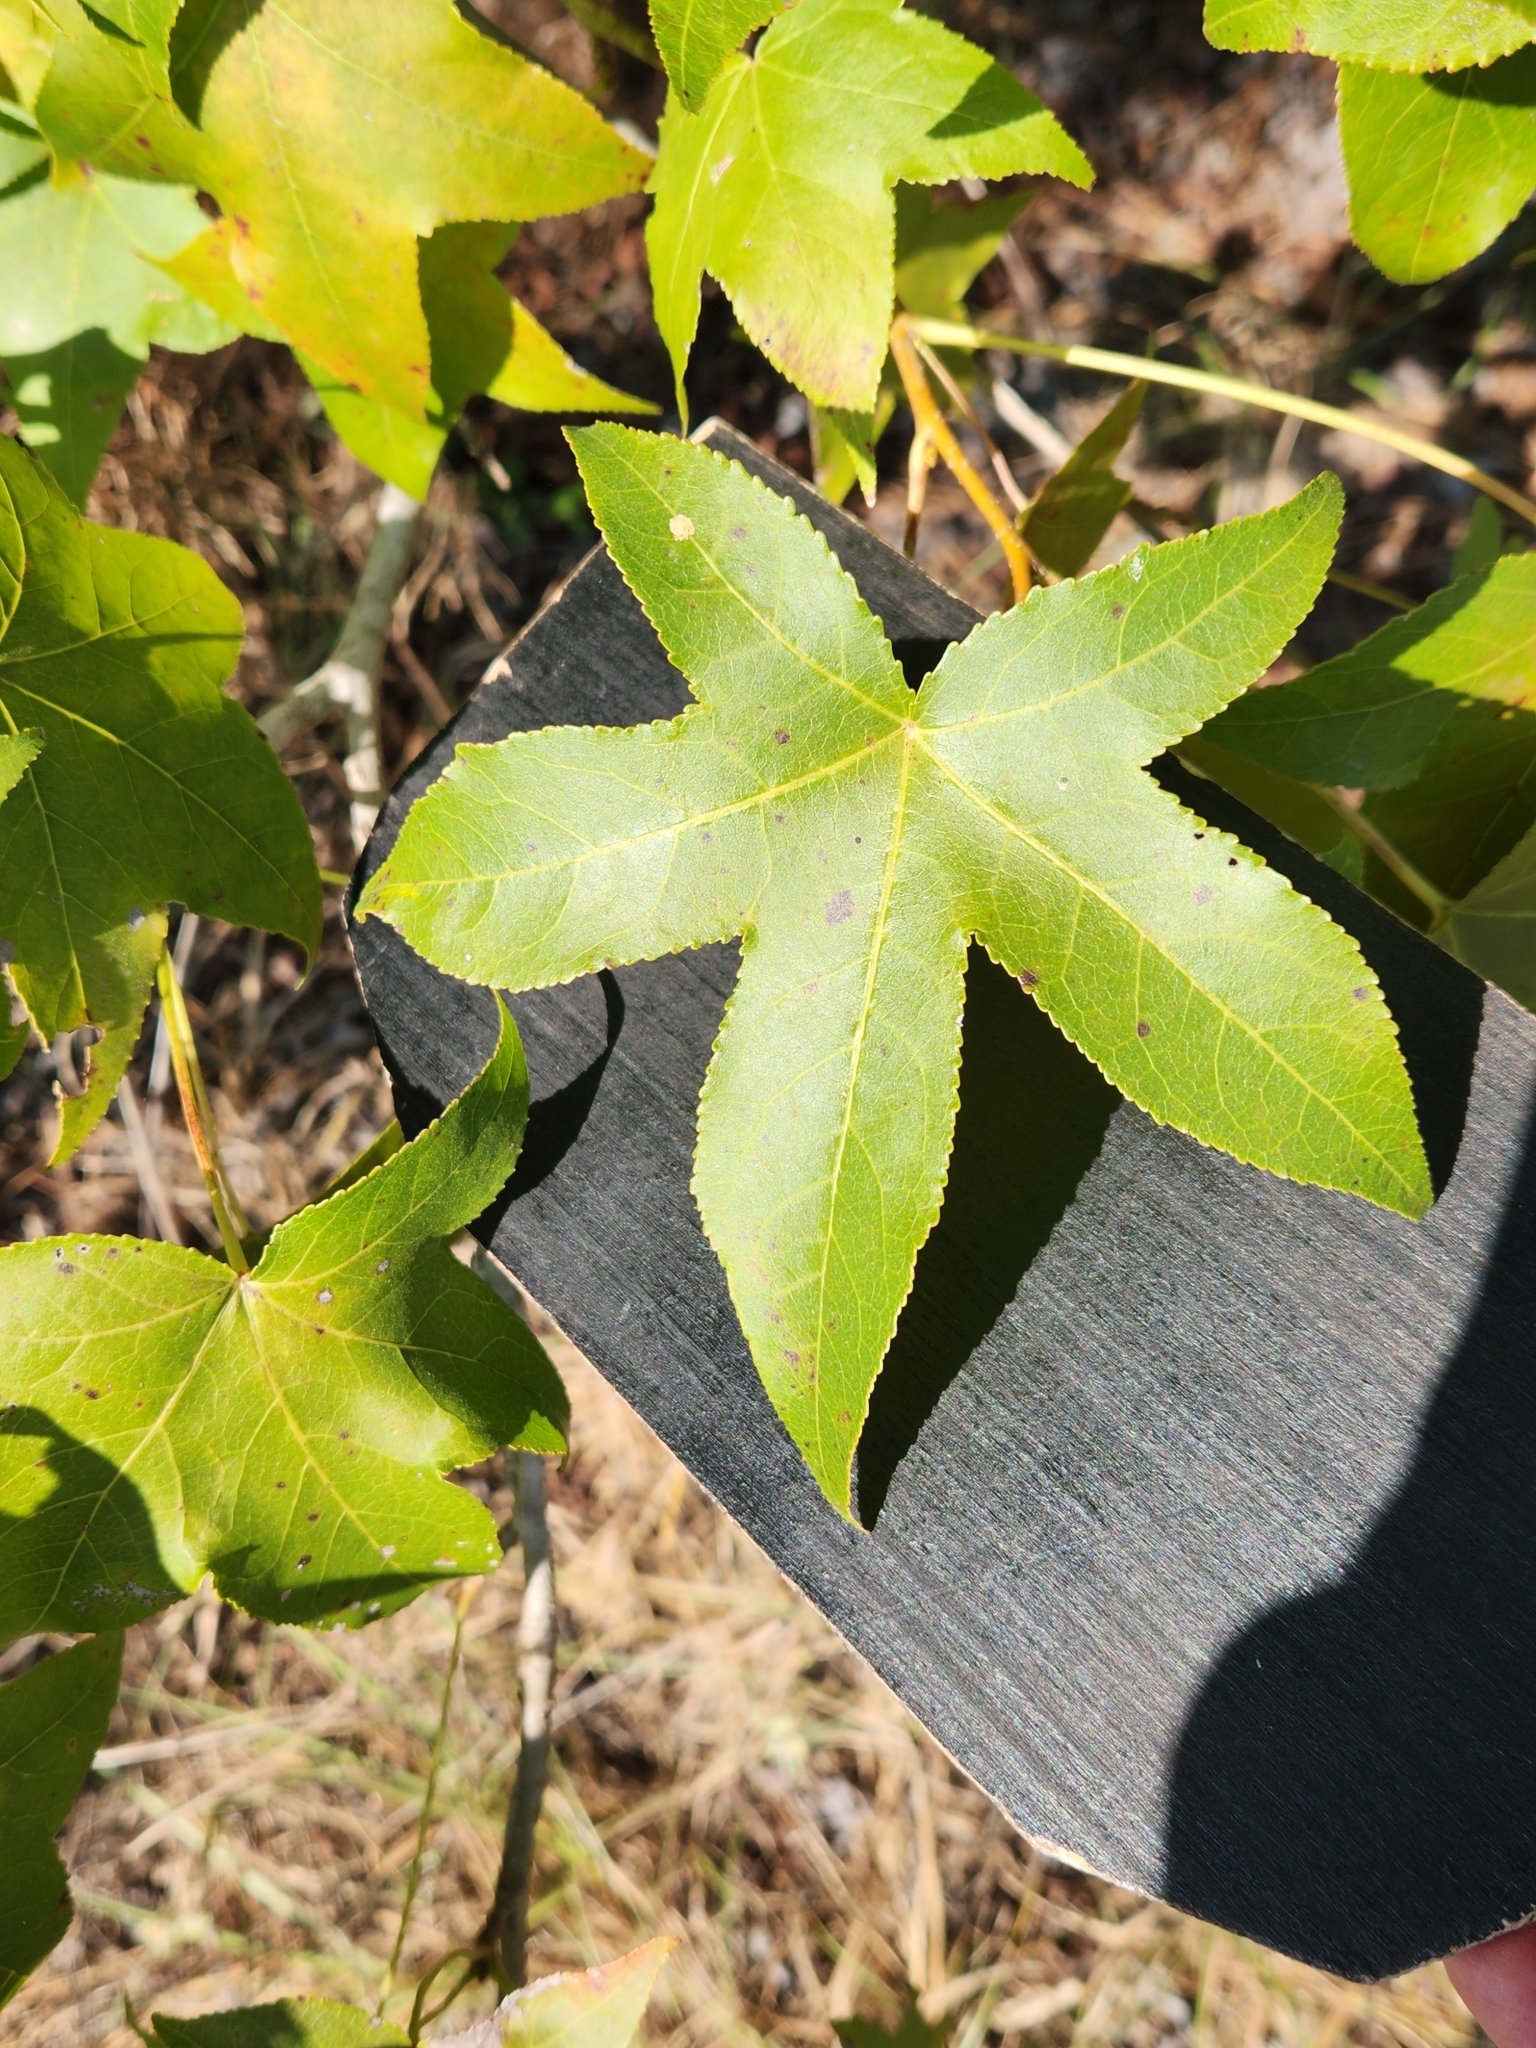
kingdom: Plantae
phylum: Tracheophyta
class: Magnoliopsida
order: Saxifragales
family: Altingiaceae
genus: Liquidambar
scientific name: Liquidambar styraciflua
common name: Sweet gum
